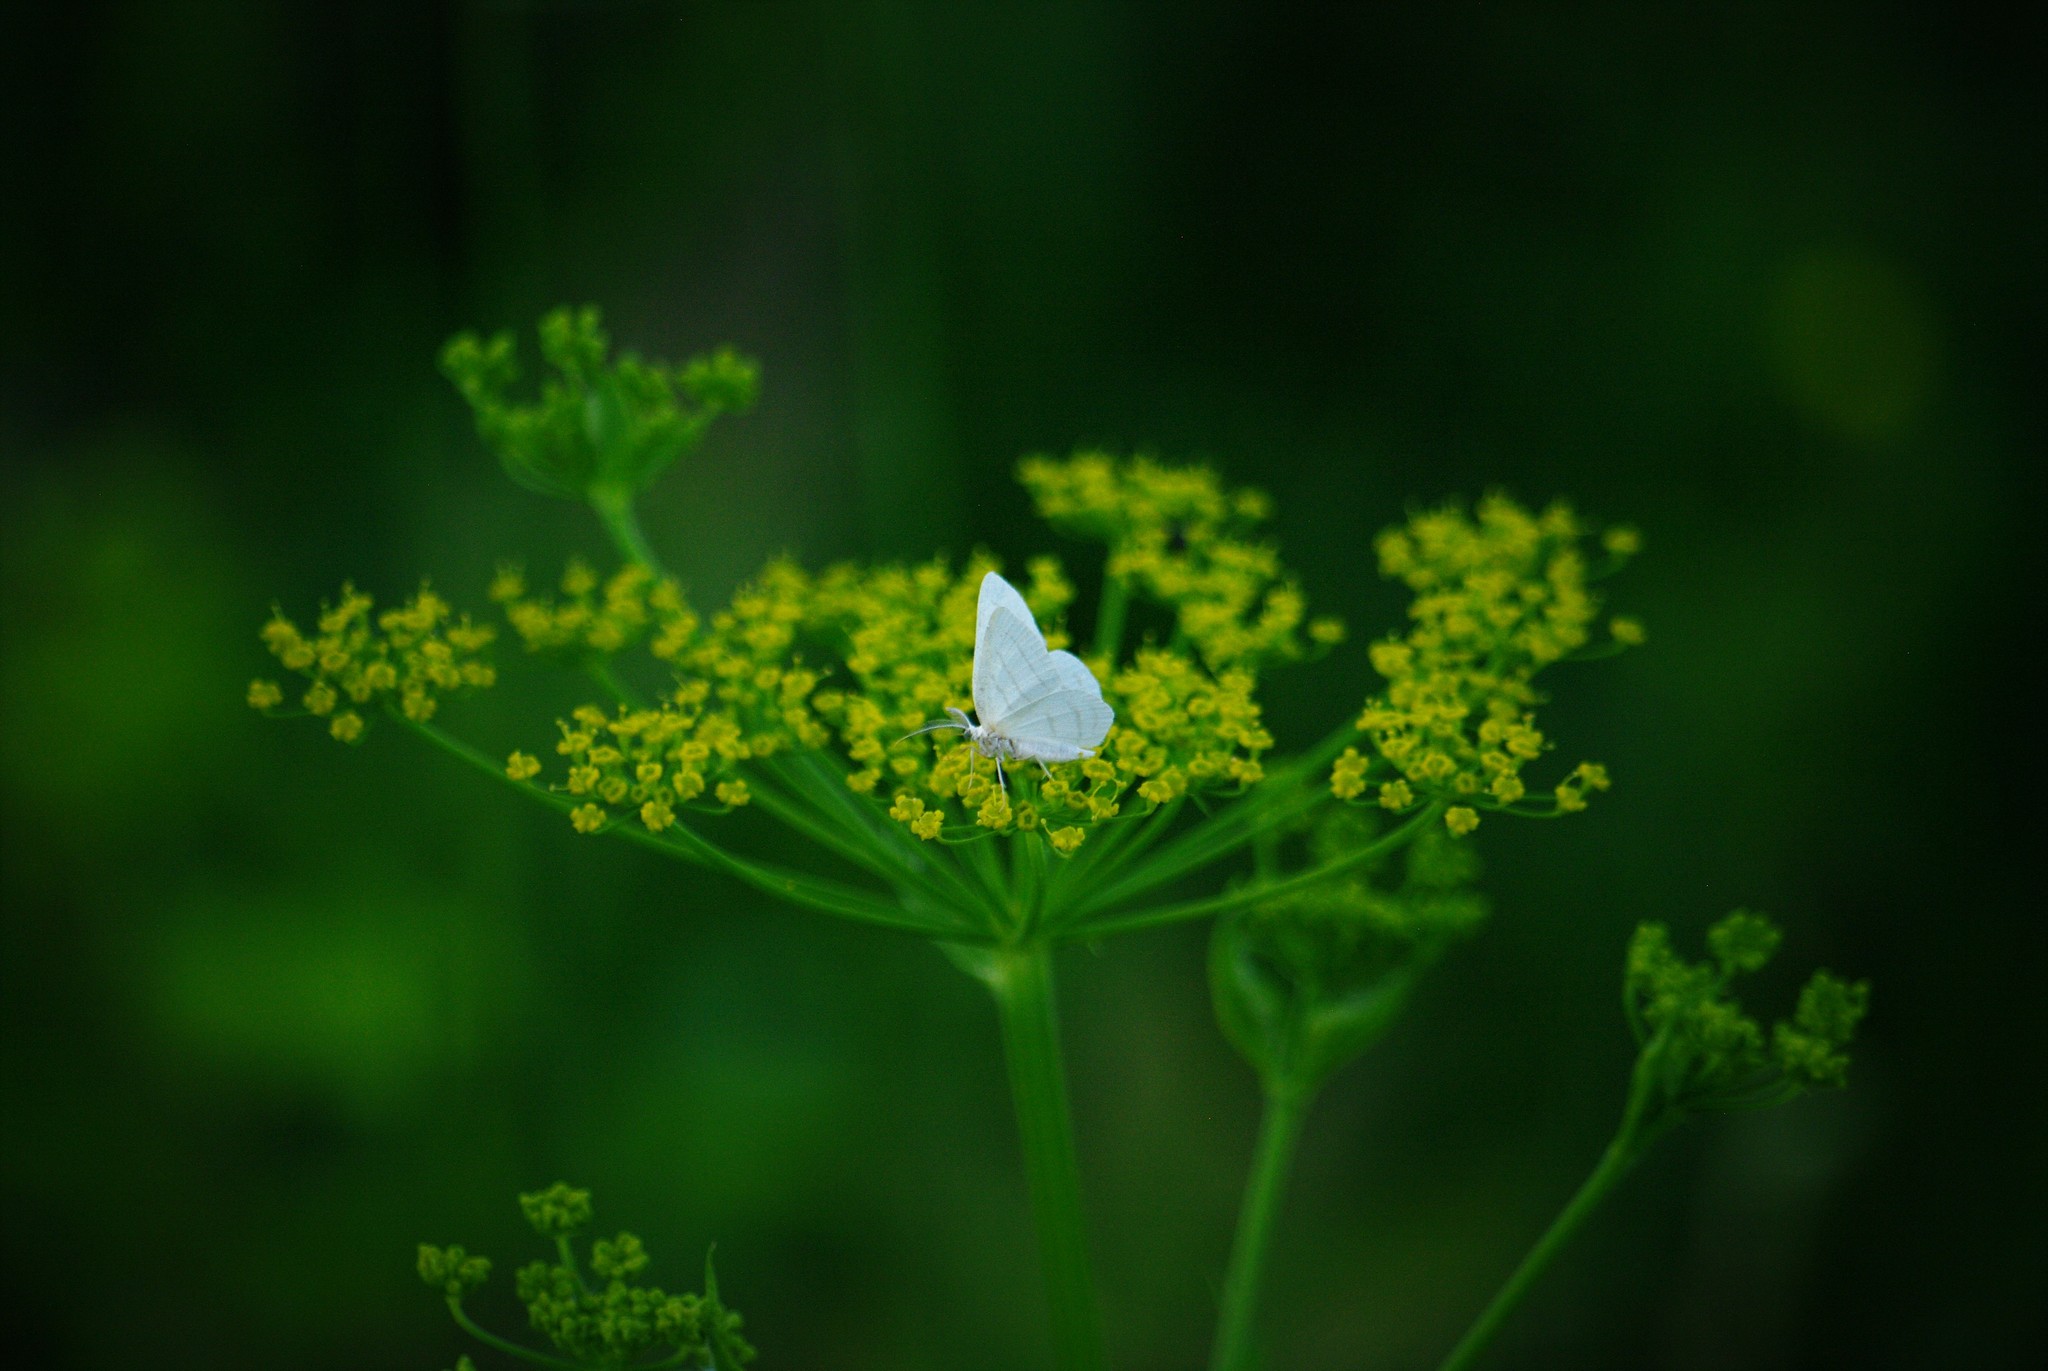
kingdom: Animalia
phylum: Arthropoda
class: Insecta
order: Lepidoptera
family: Geometridae
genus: Cabera
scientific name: Cabera quadrifasciaria
